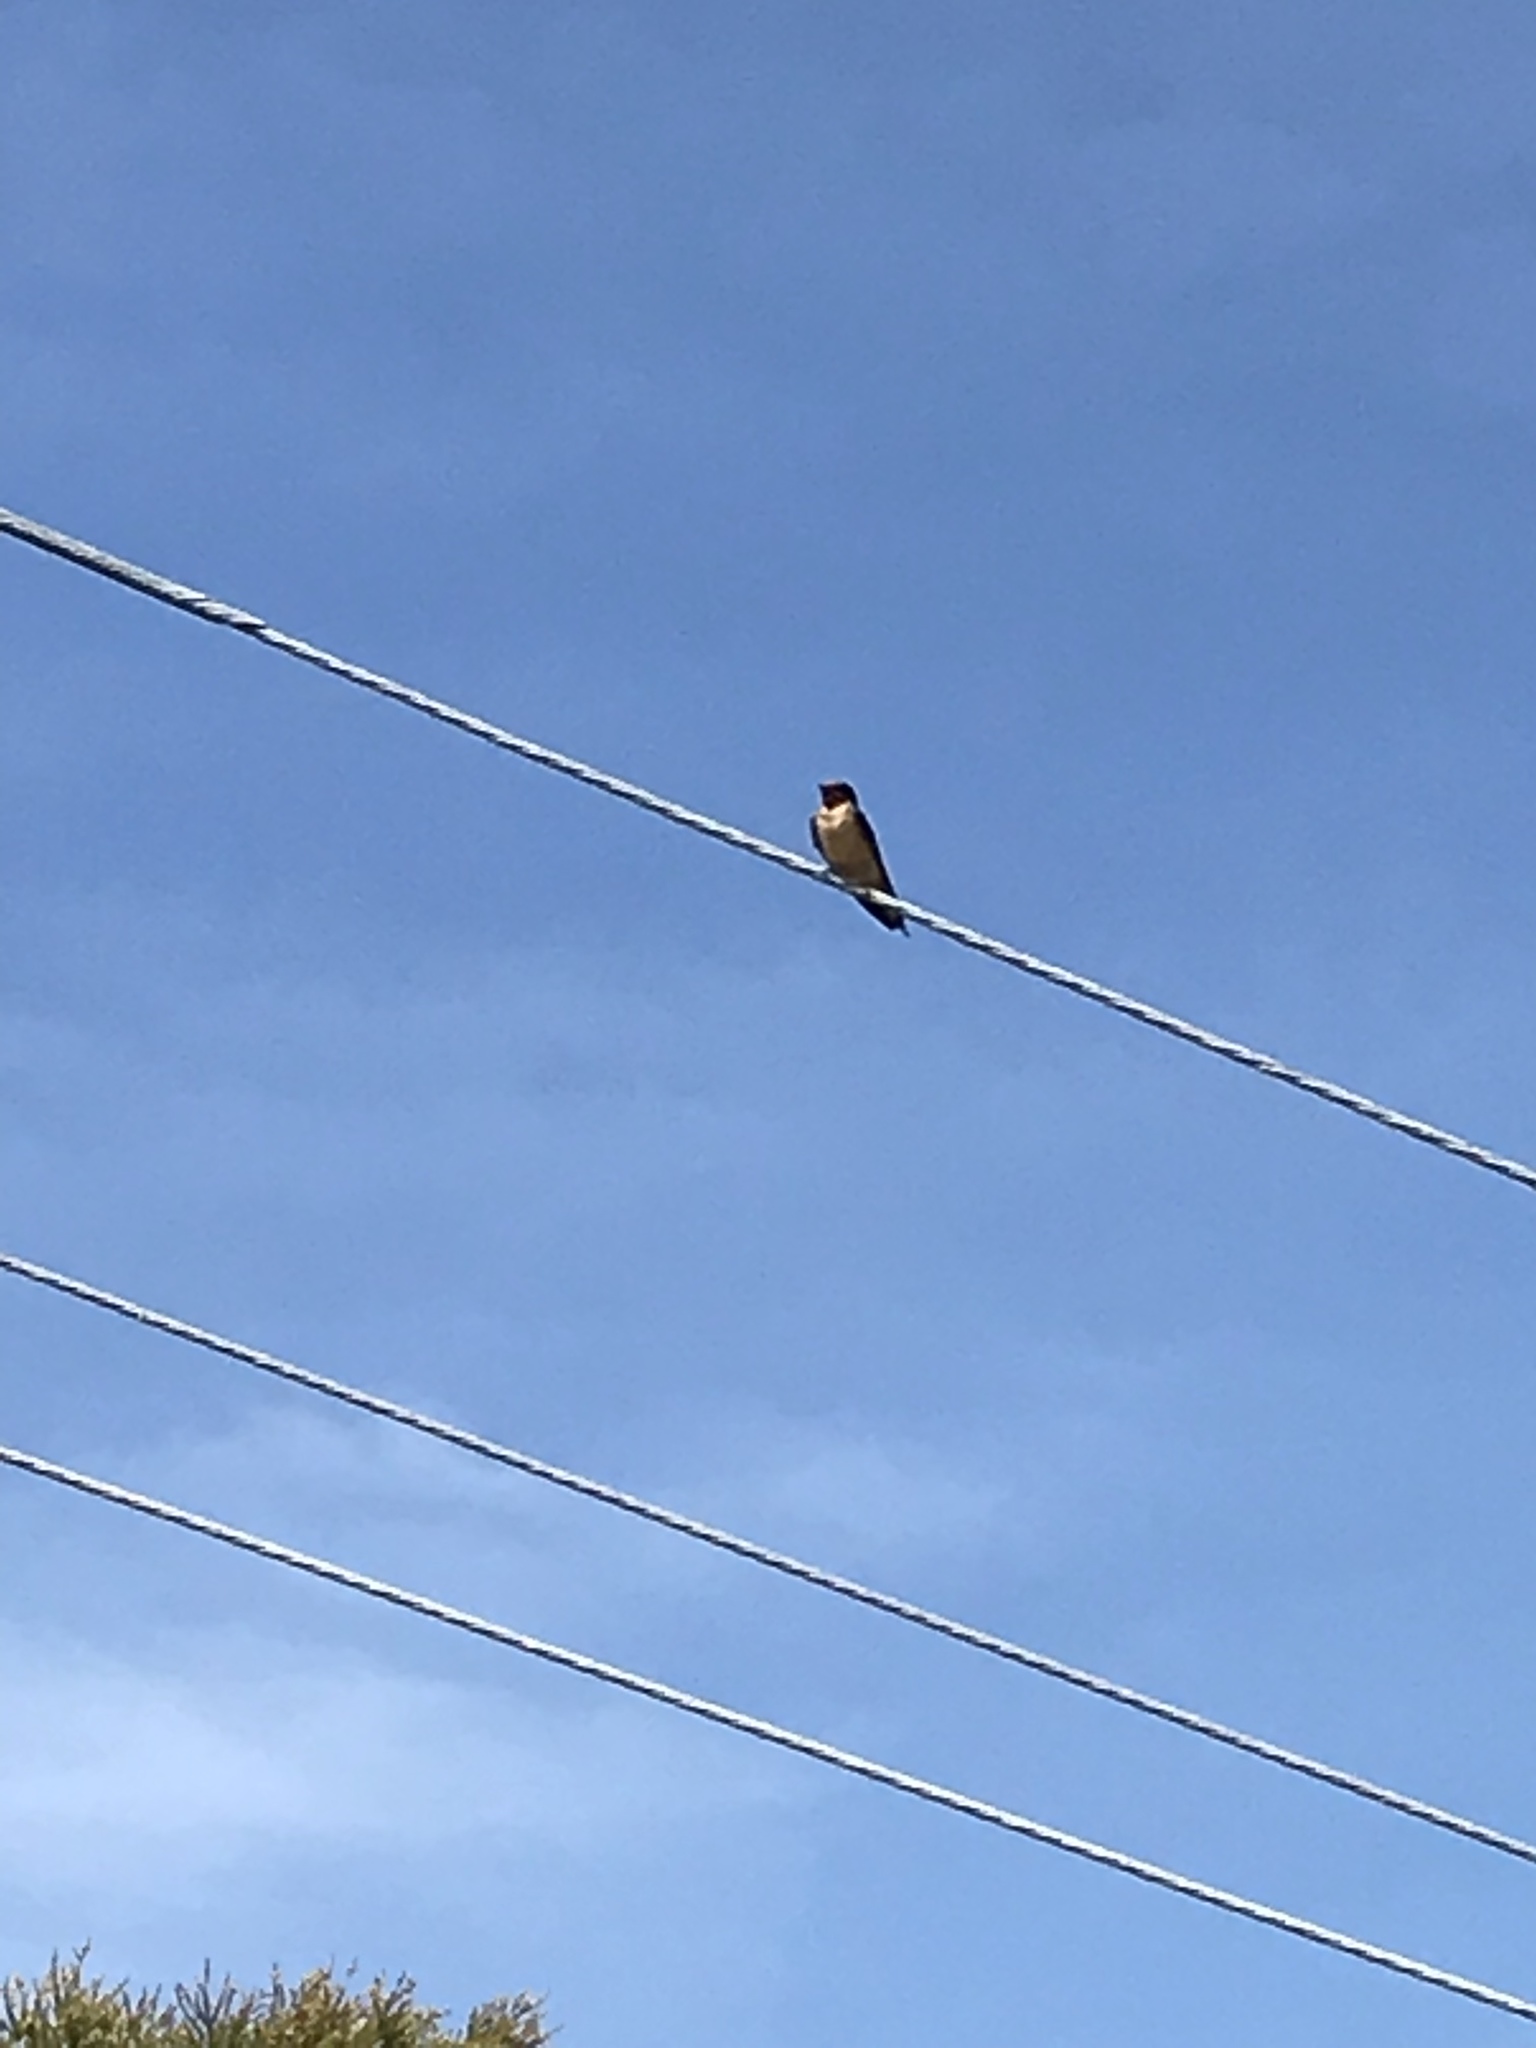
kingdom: Animalia
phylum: Chordata
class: Aves
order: Passeriformes
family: Hirundinidae
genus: Hirundo
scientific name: Hirundo rustica
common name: Barn swallow
